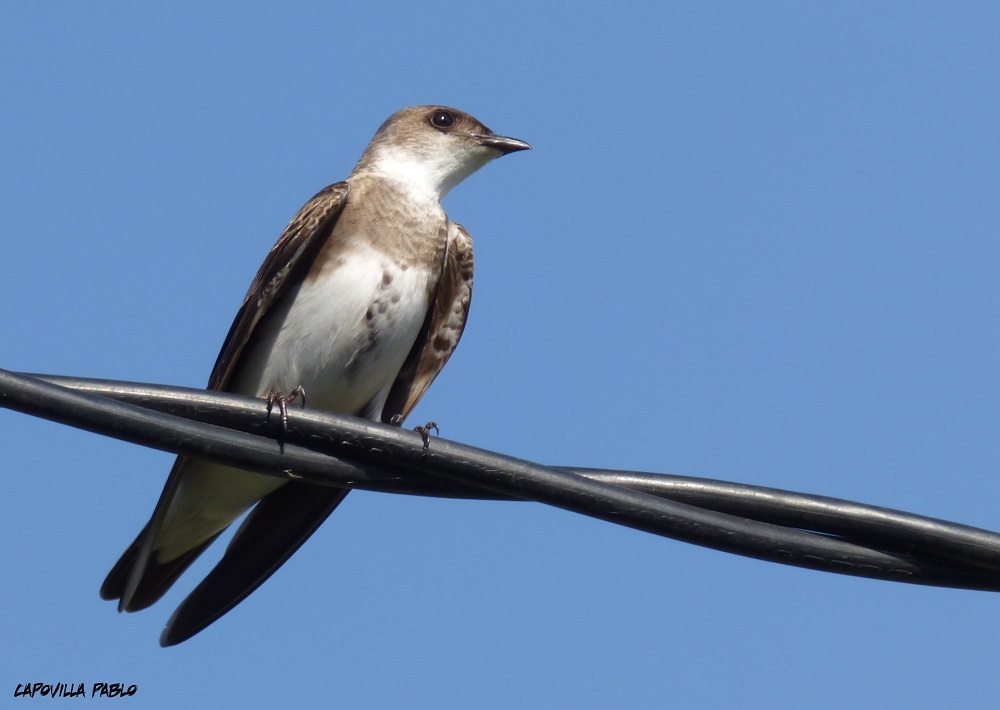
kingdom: Animalia
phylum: Chordata
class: Aves
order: Passeriformes
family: Hirundinidae
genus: Progne
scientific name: Progne tapera
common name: Brown-chested martin
